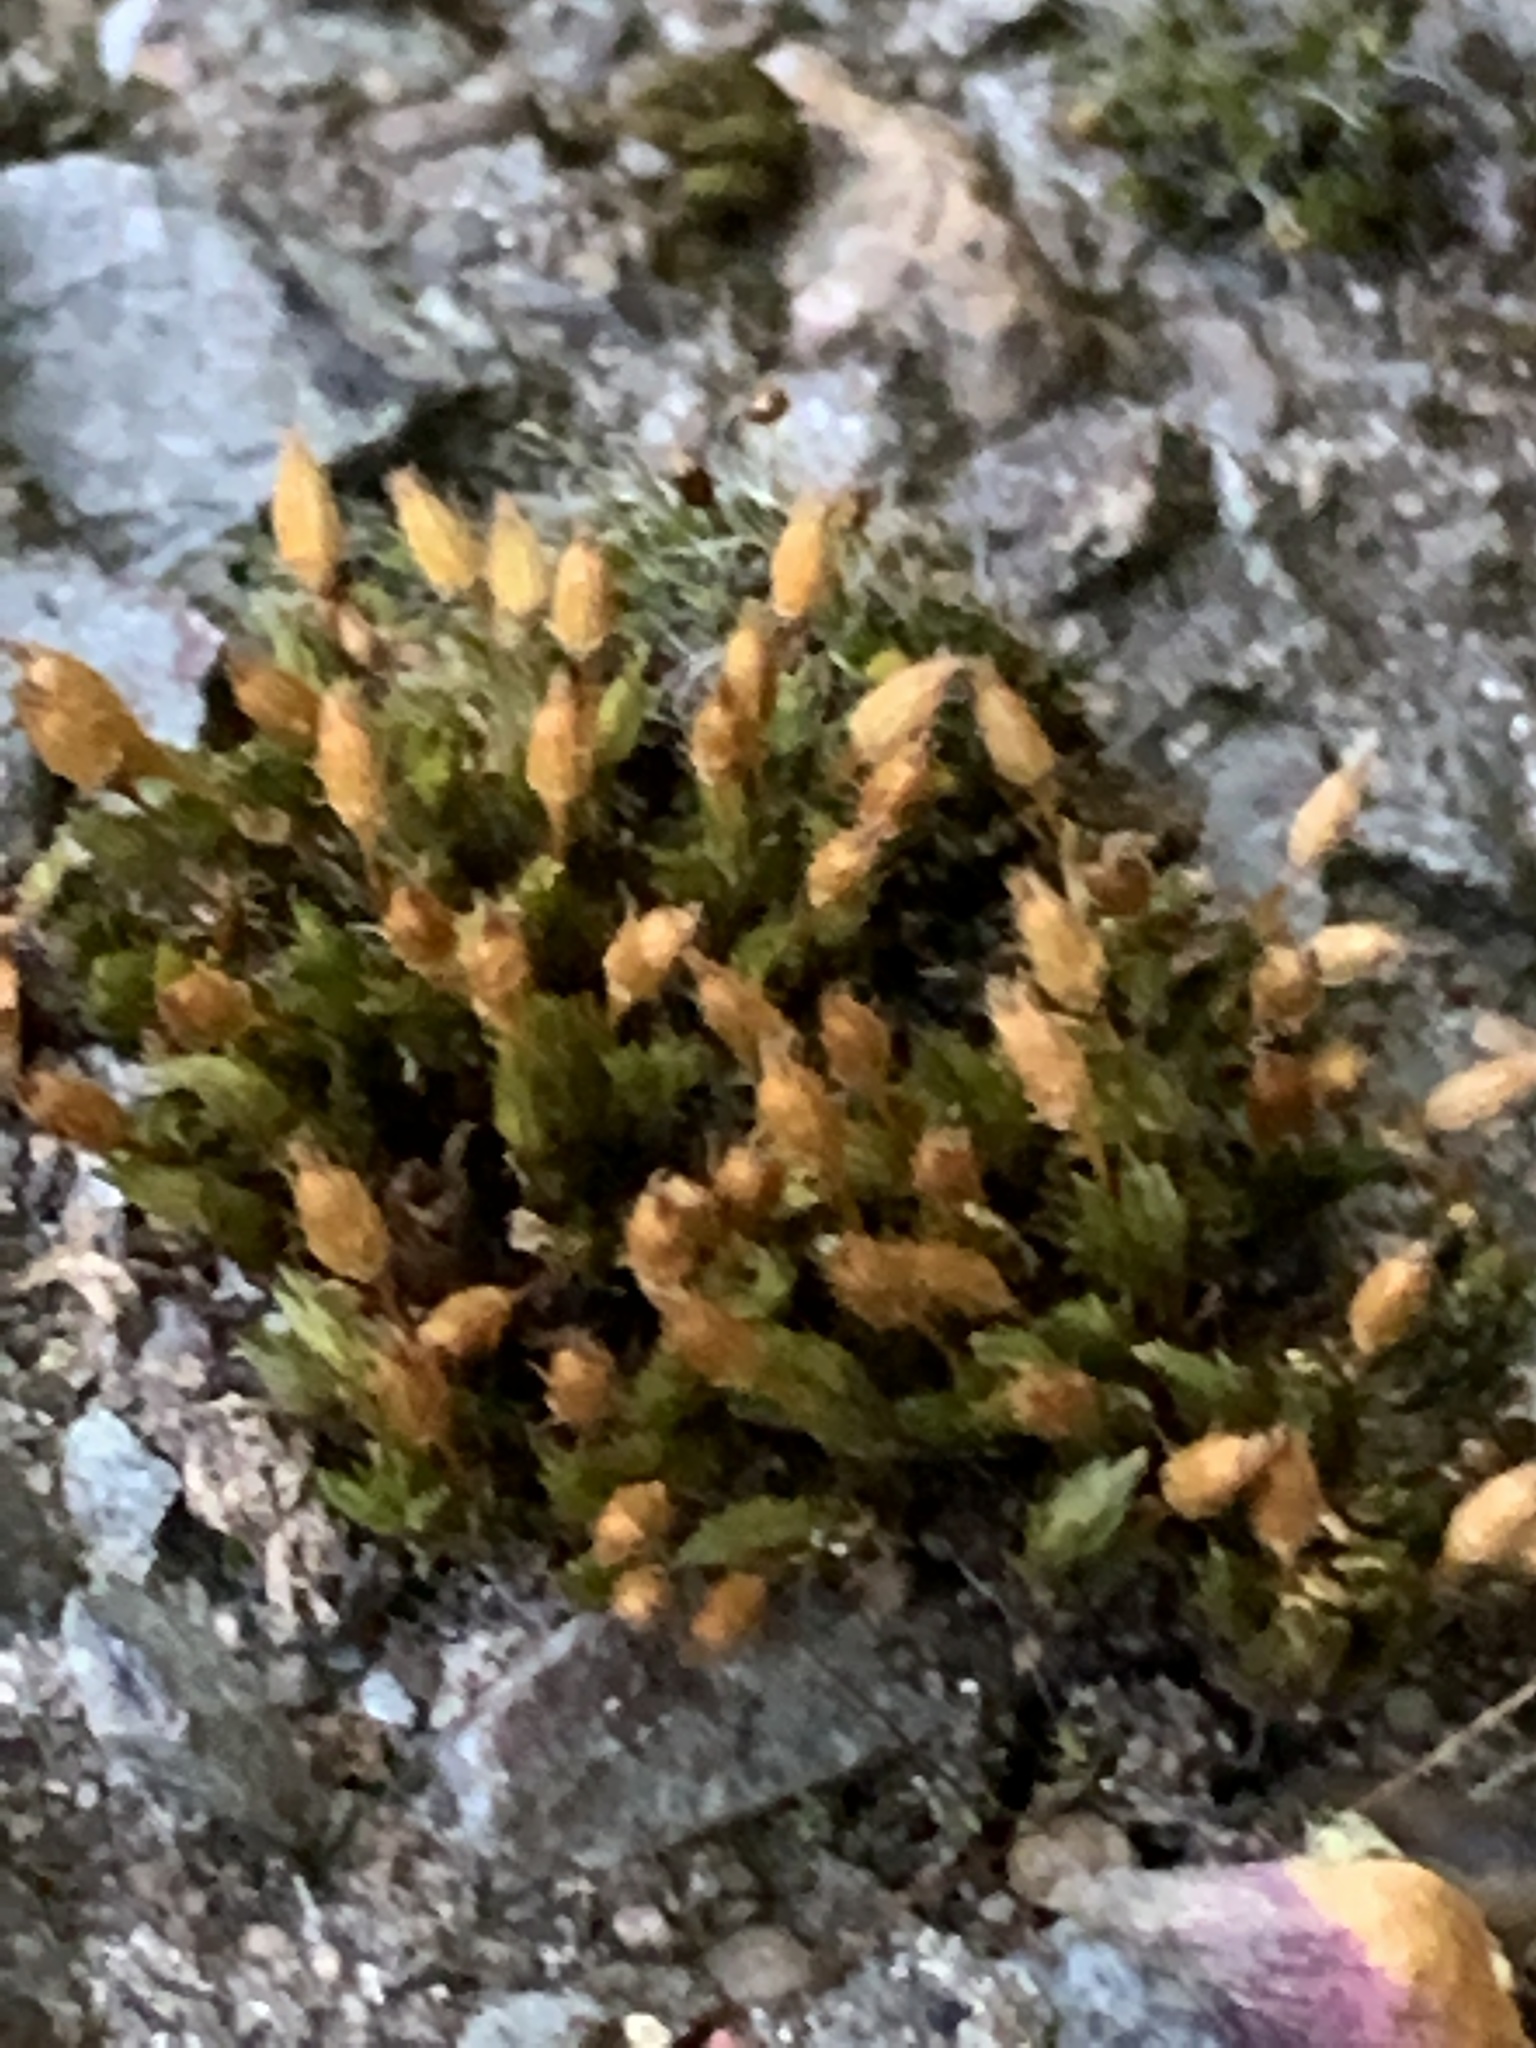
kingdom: Plantae
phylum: Bryophyta
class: Bryopsida
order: Orthotrichales
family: Orthotrichaceae
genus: Orthotrichum
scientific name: Orthotrichum anomalum
